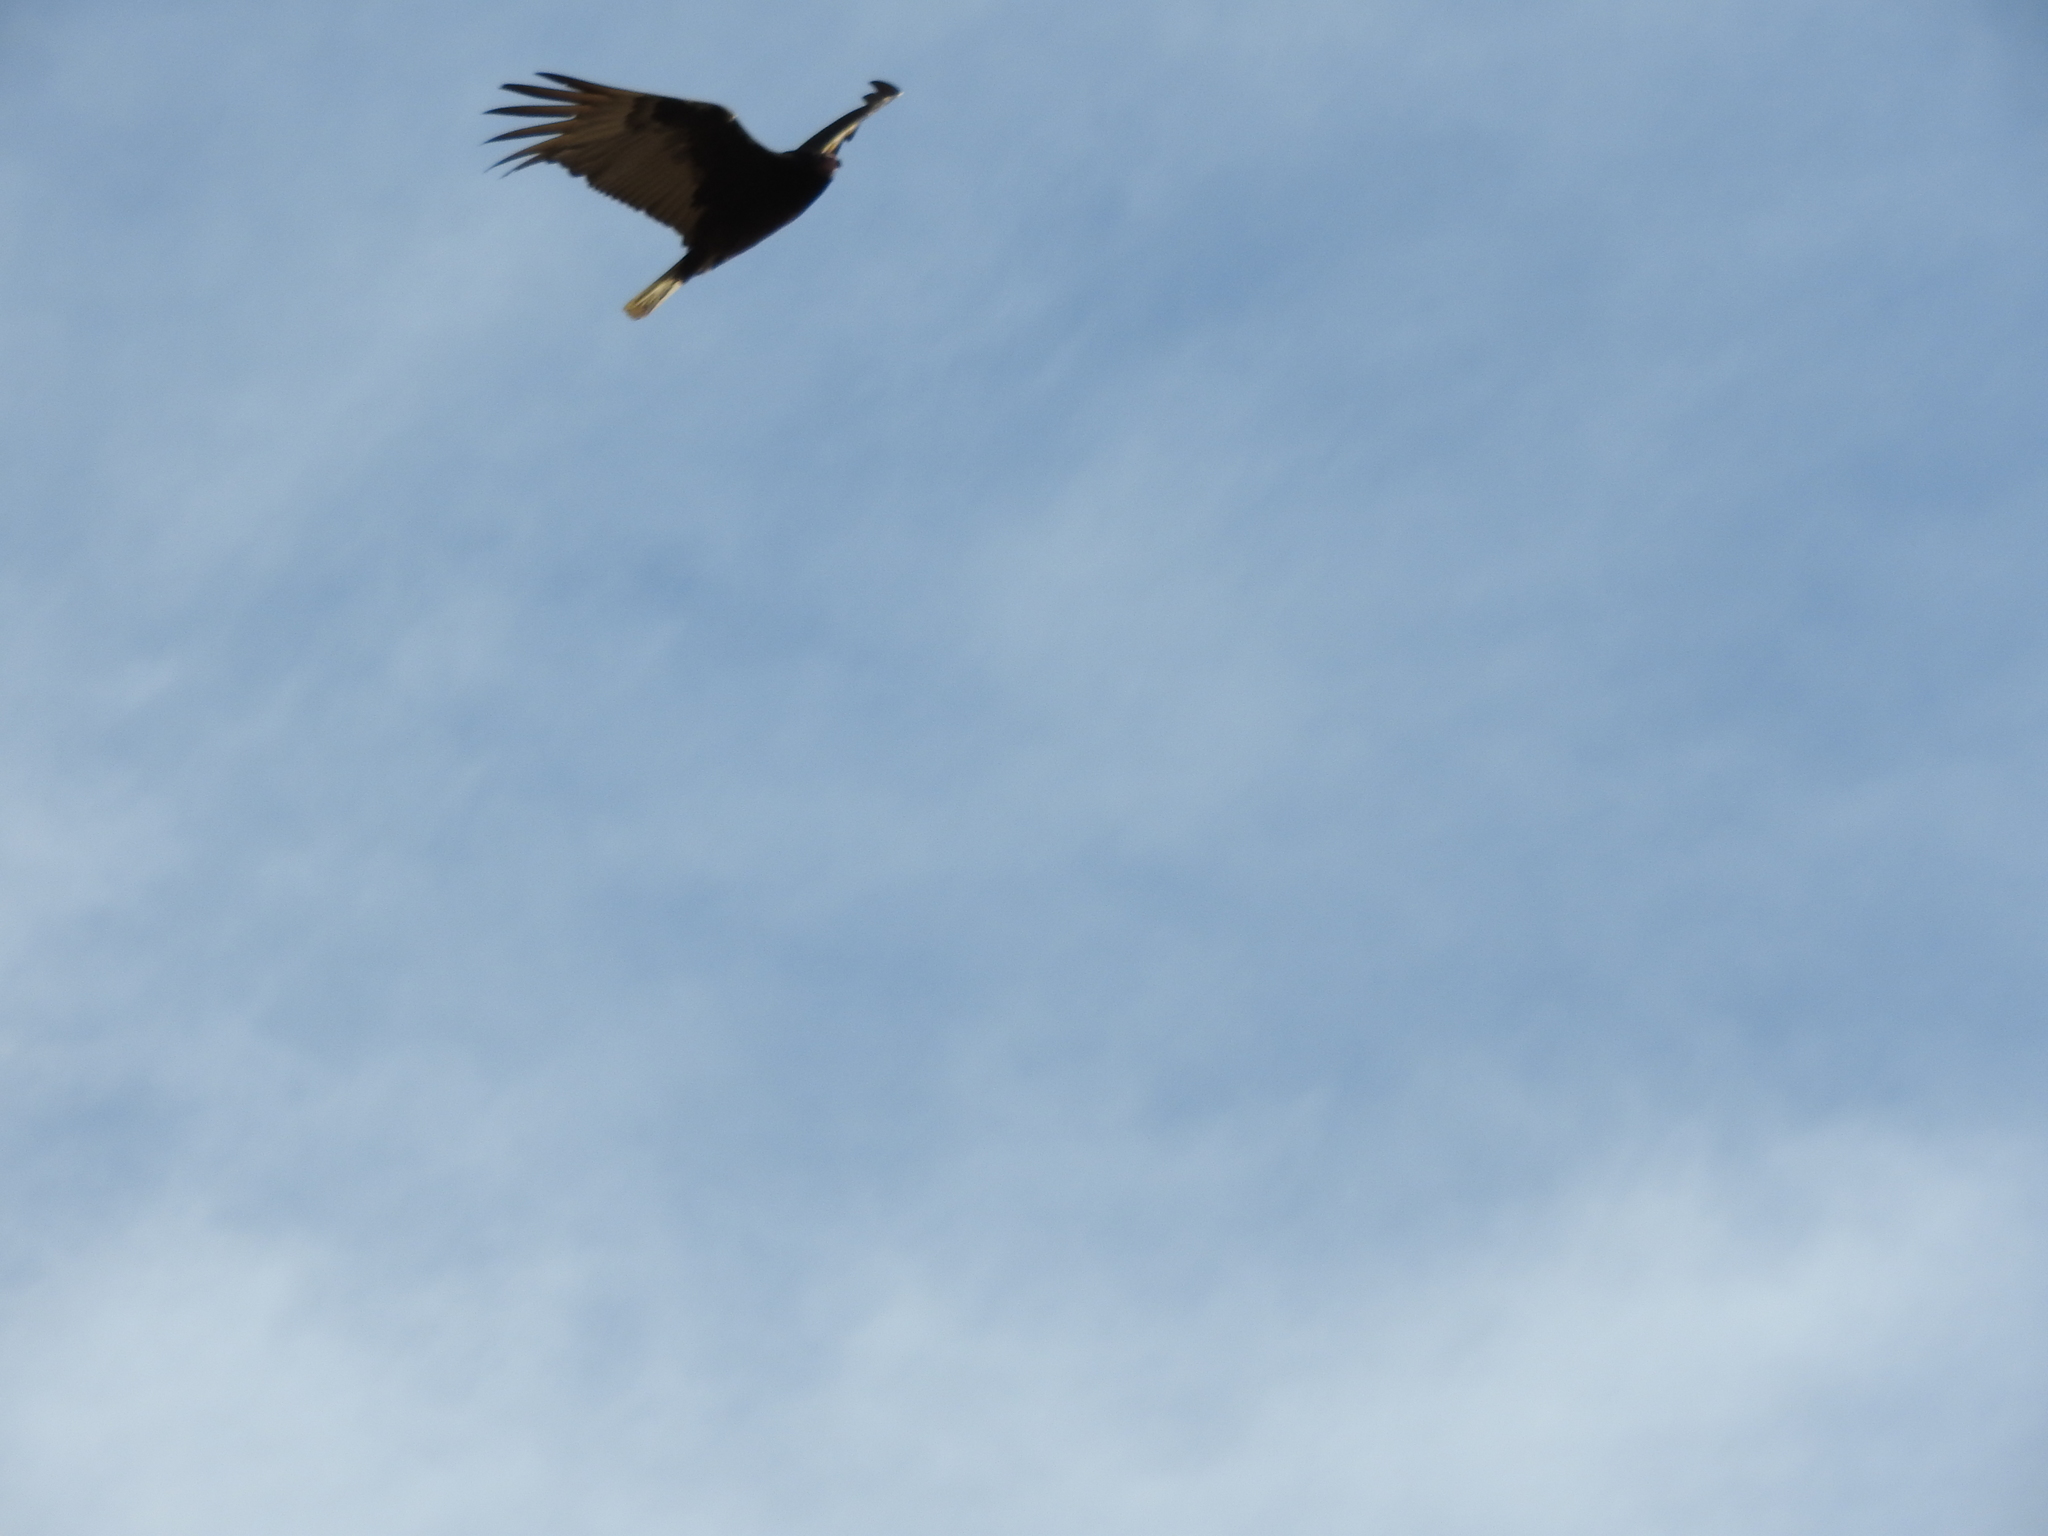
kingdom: Animalia
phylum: Chordata
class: Aves
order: Accipitriformes
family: Cathartidae
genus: Cathartes
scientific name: Cathartes aura
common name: Turkey vulture
